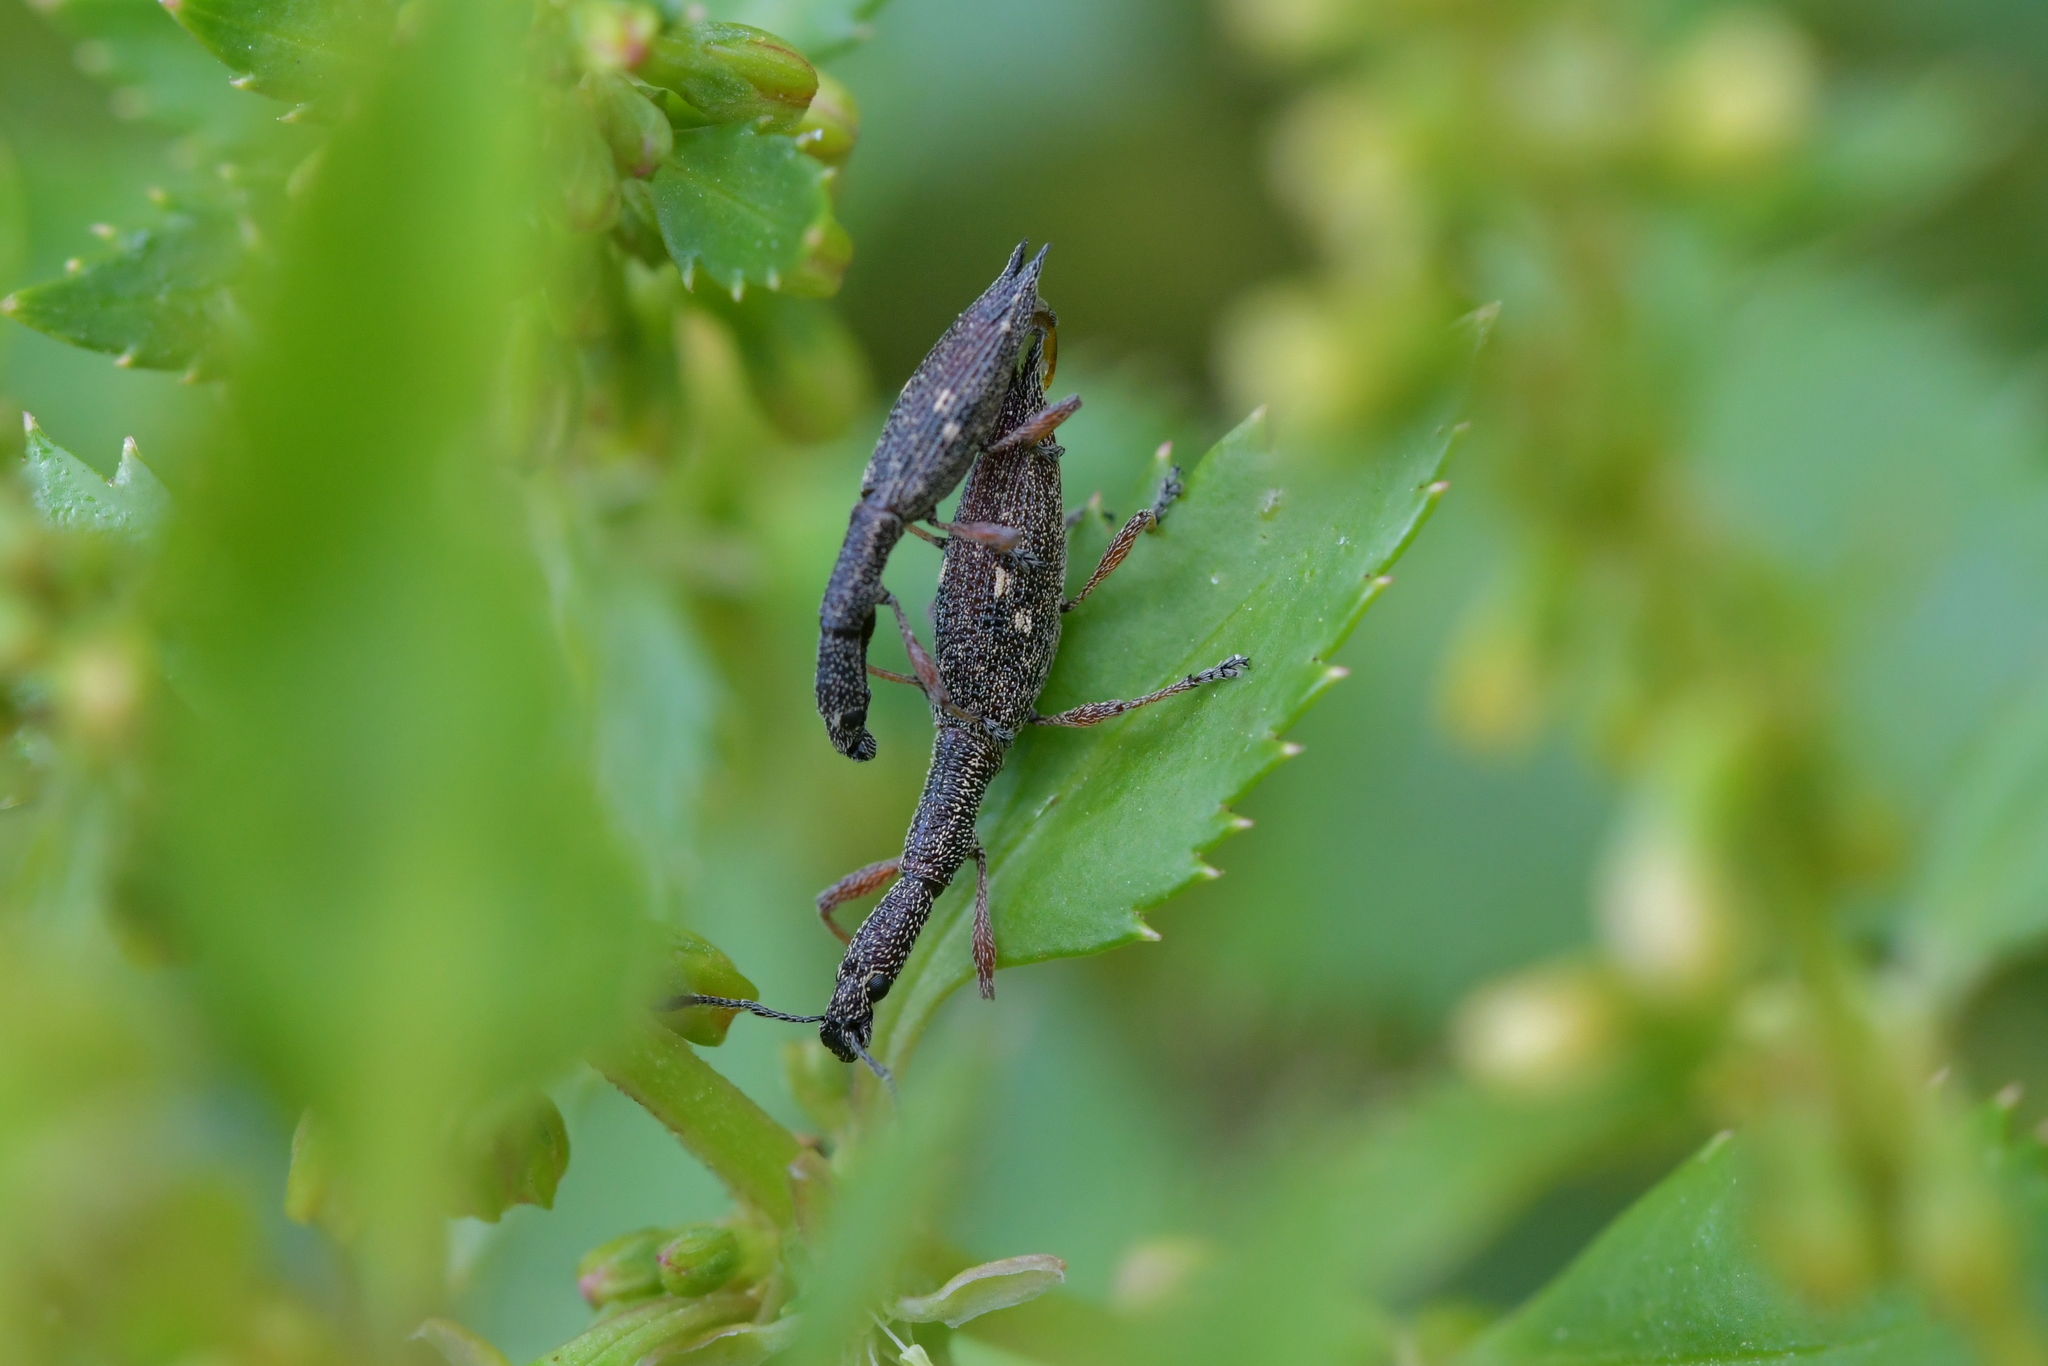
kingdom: Animalia
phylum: Arthropoda
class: Insecta
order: Coleoptera
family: Curculionidae
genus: Rhadinosomus
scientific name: Rhadinosomus acuminatus
